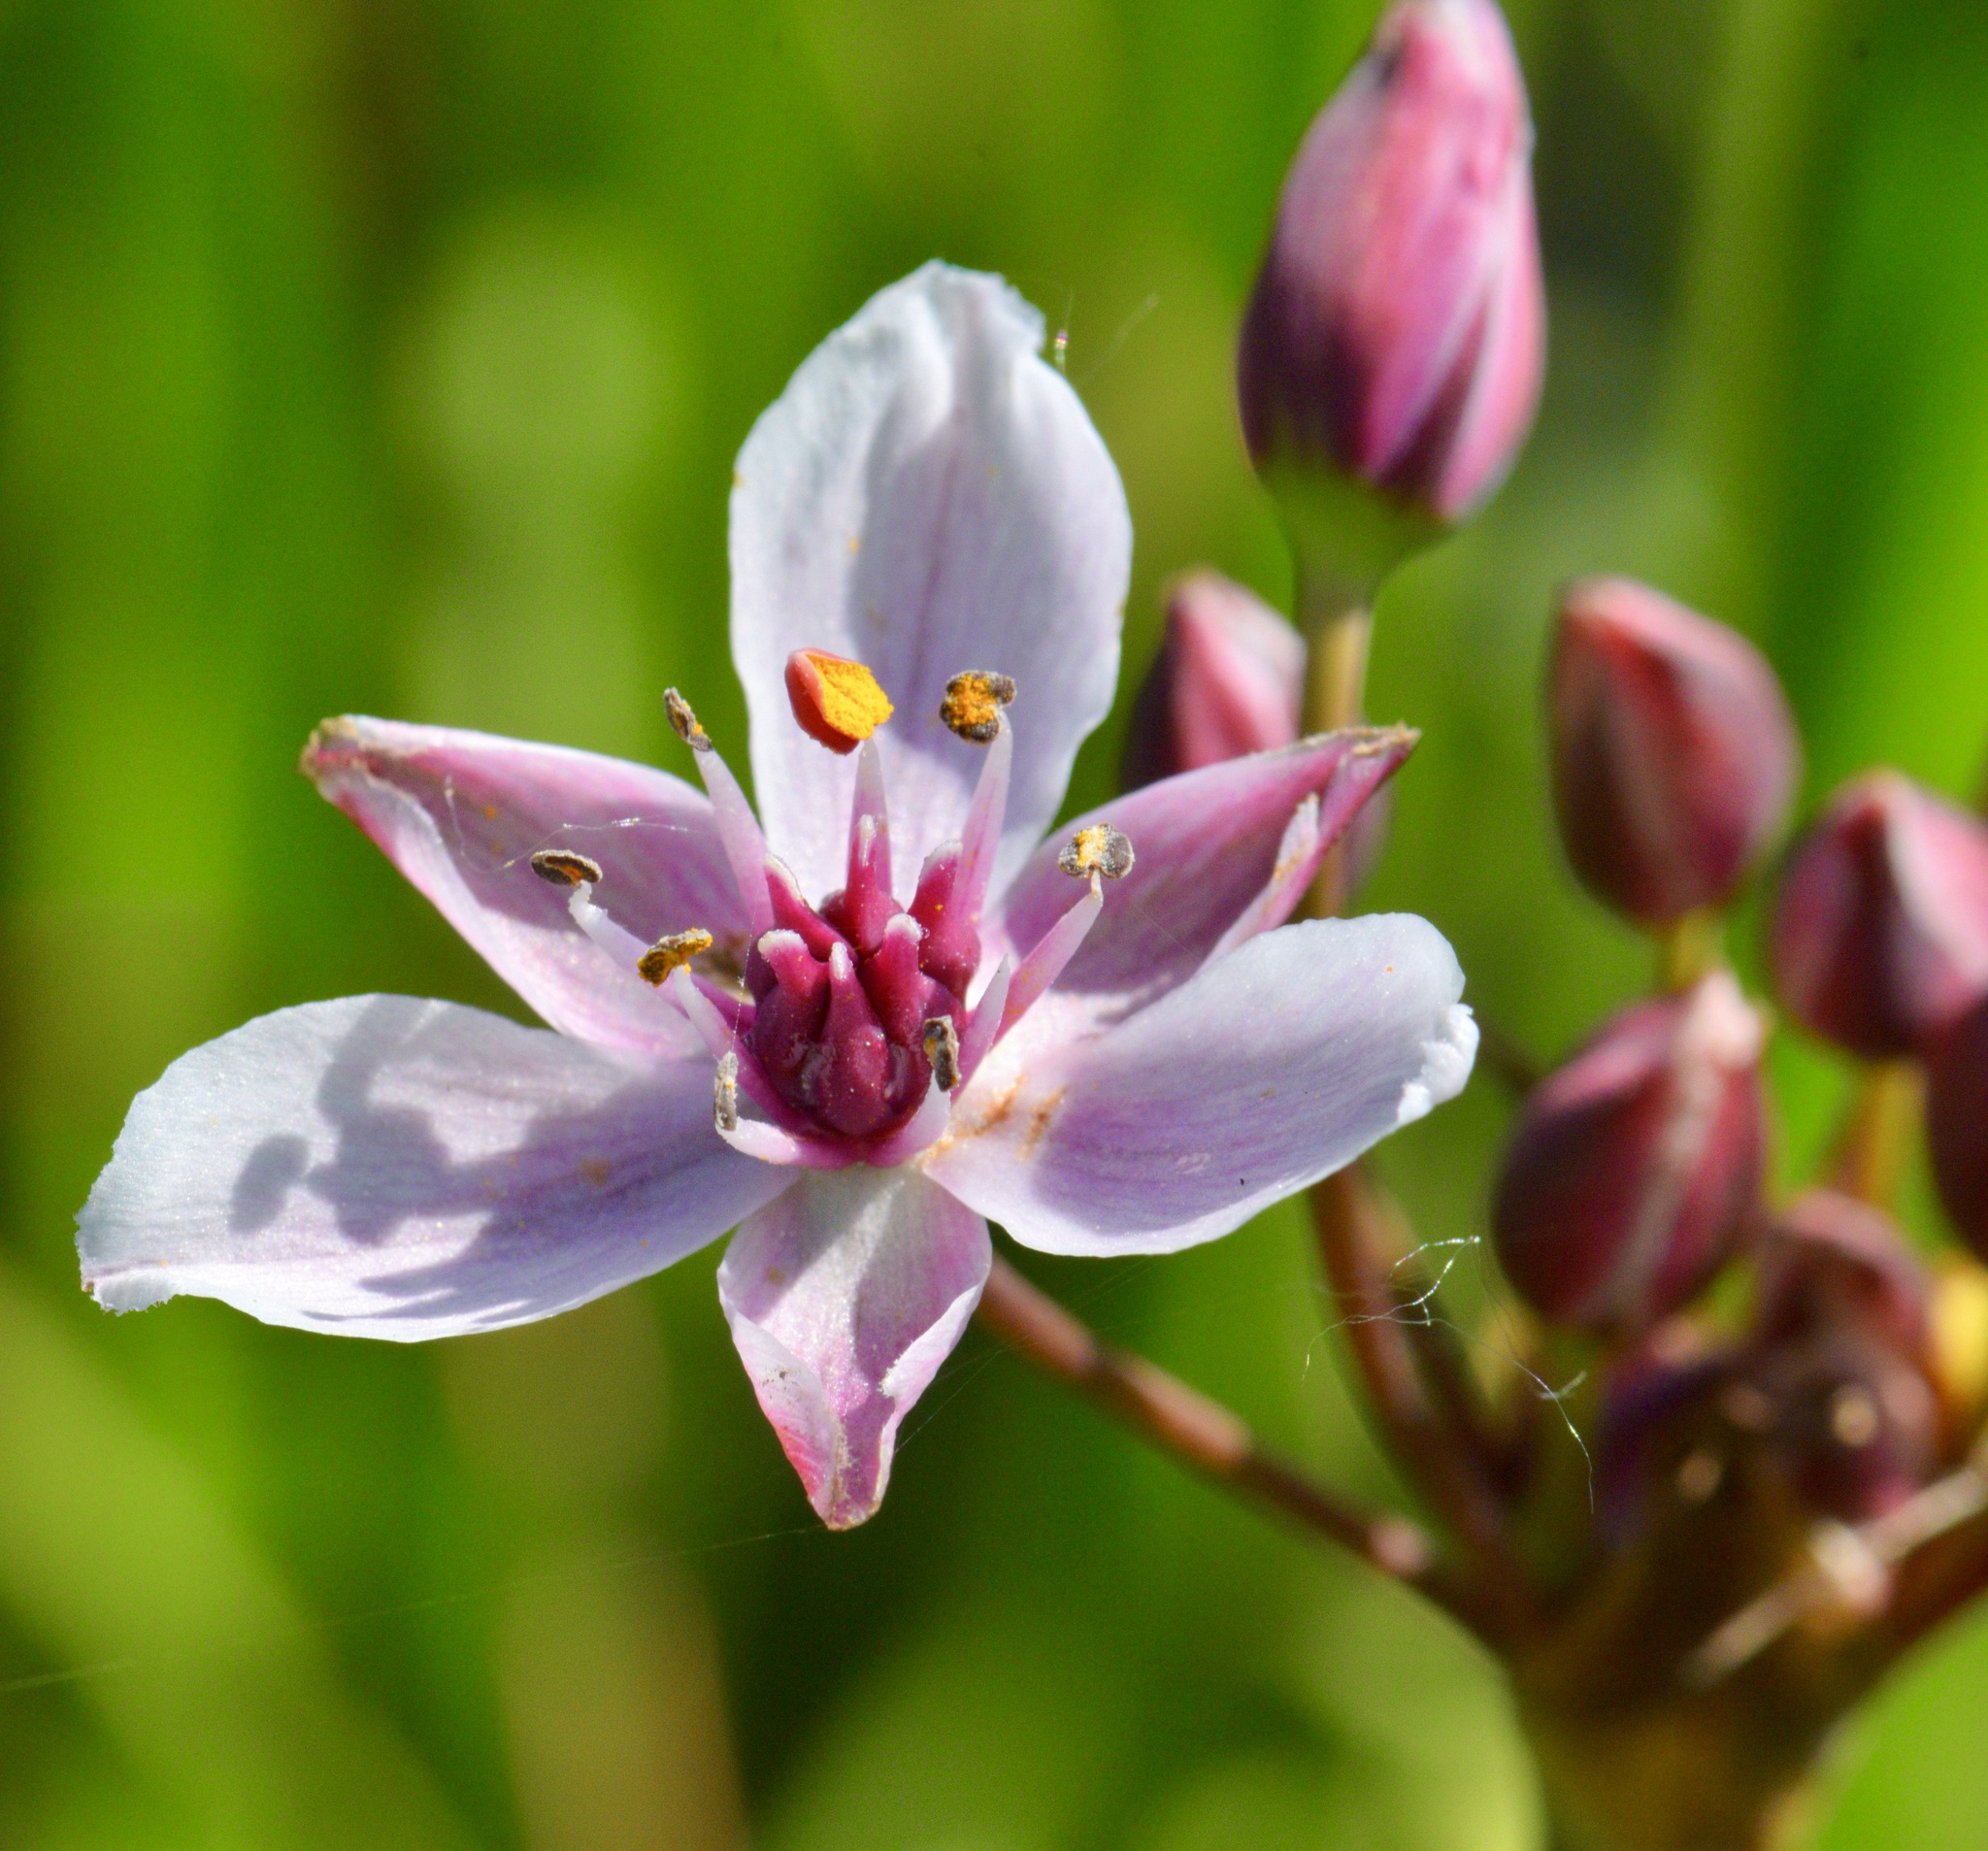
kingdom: Plantae
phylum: Tracheophyta
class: Liliopsida
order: Alismatales
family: Butomaceae
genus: Butomus
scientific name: Butomus umbellatus
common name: Flowering-rush
